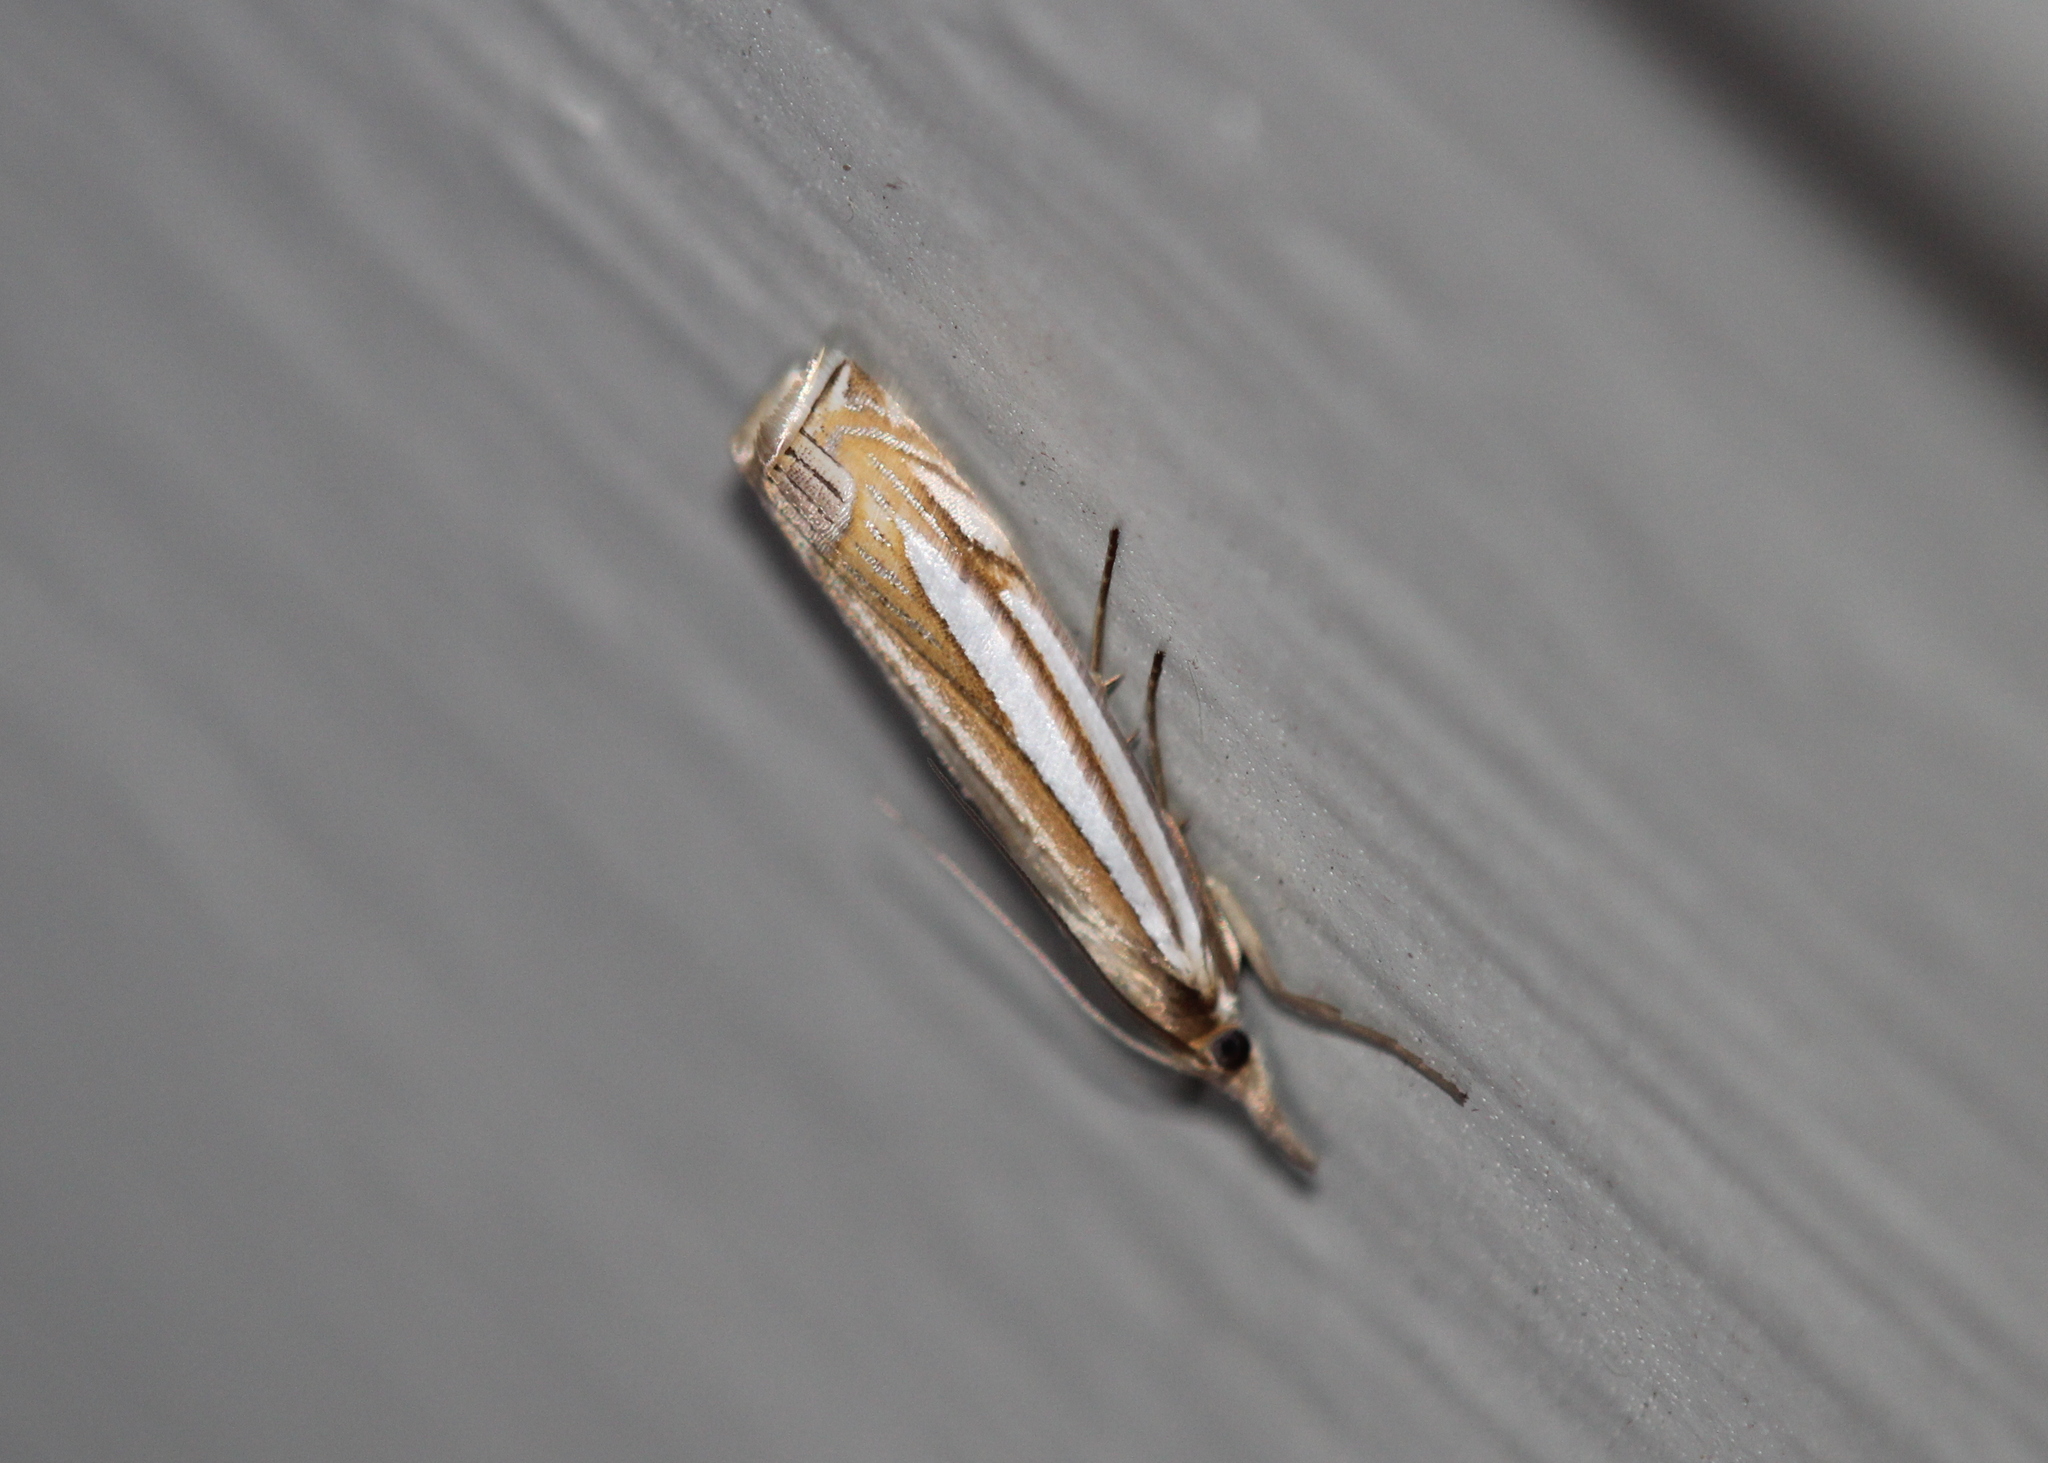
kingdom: Animalia
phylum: Arthropoda
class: Insecta
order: Lepidoptera
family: Crambidae
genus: Crambus
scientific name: Crambus laqueatellus
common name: Eastern grass-veneer
